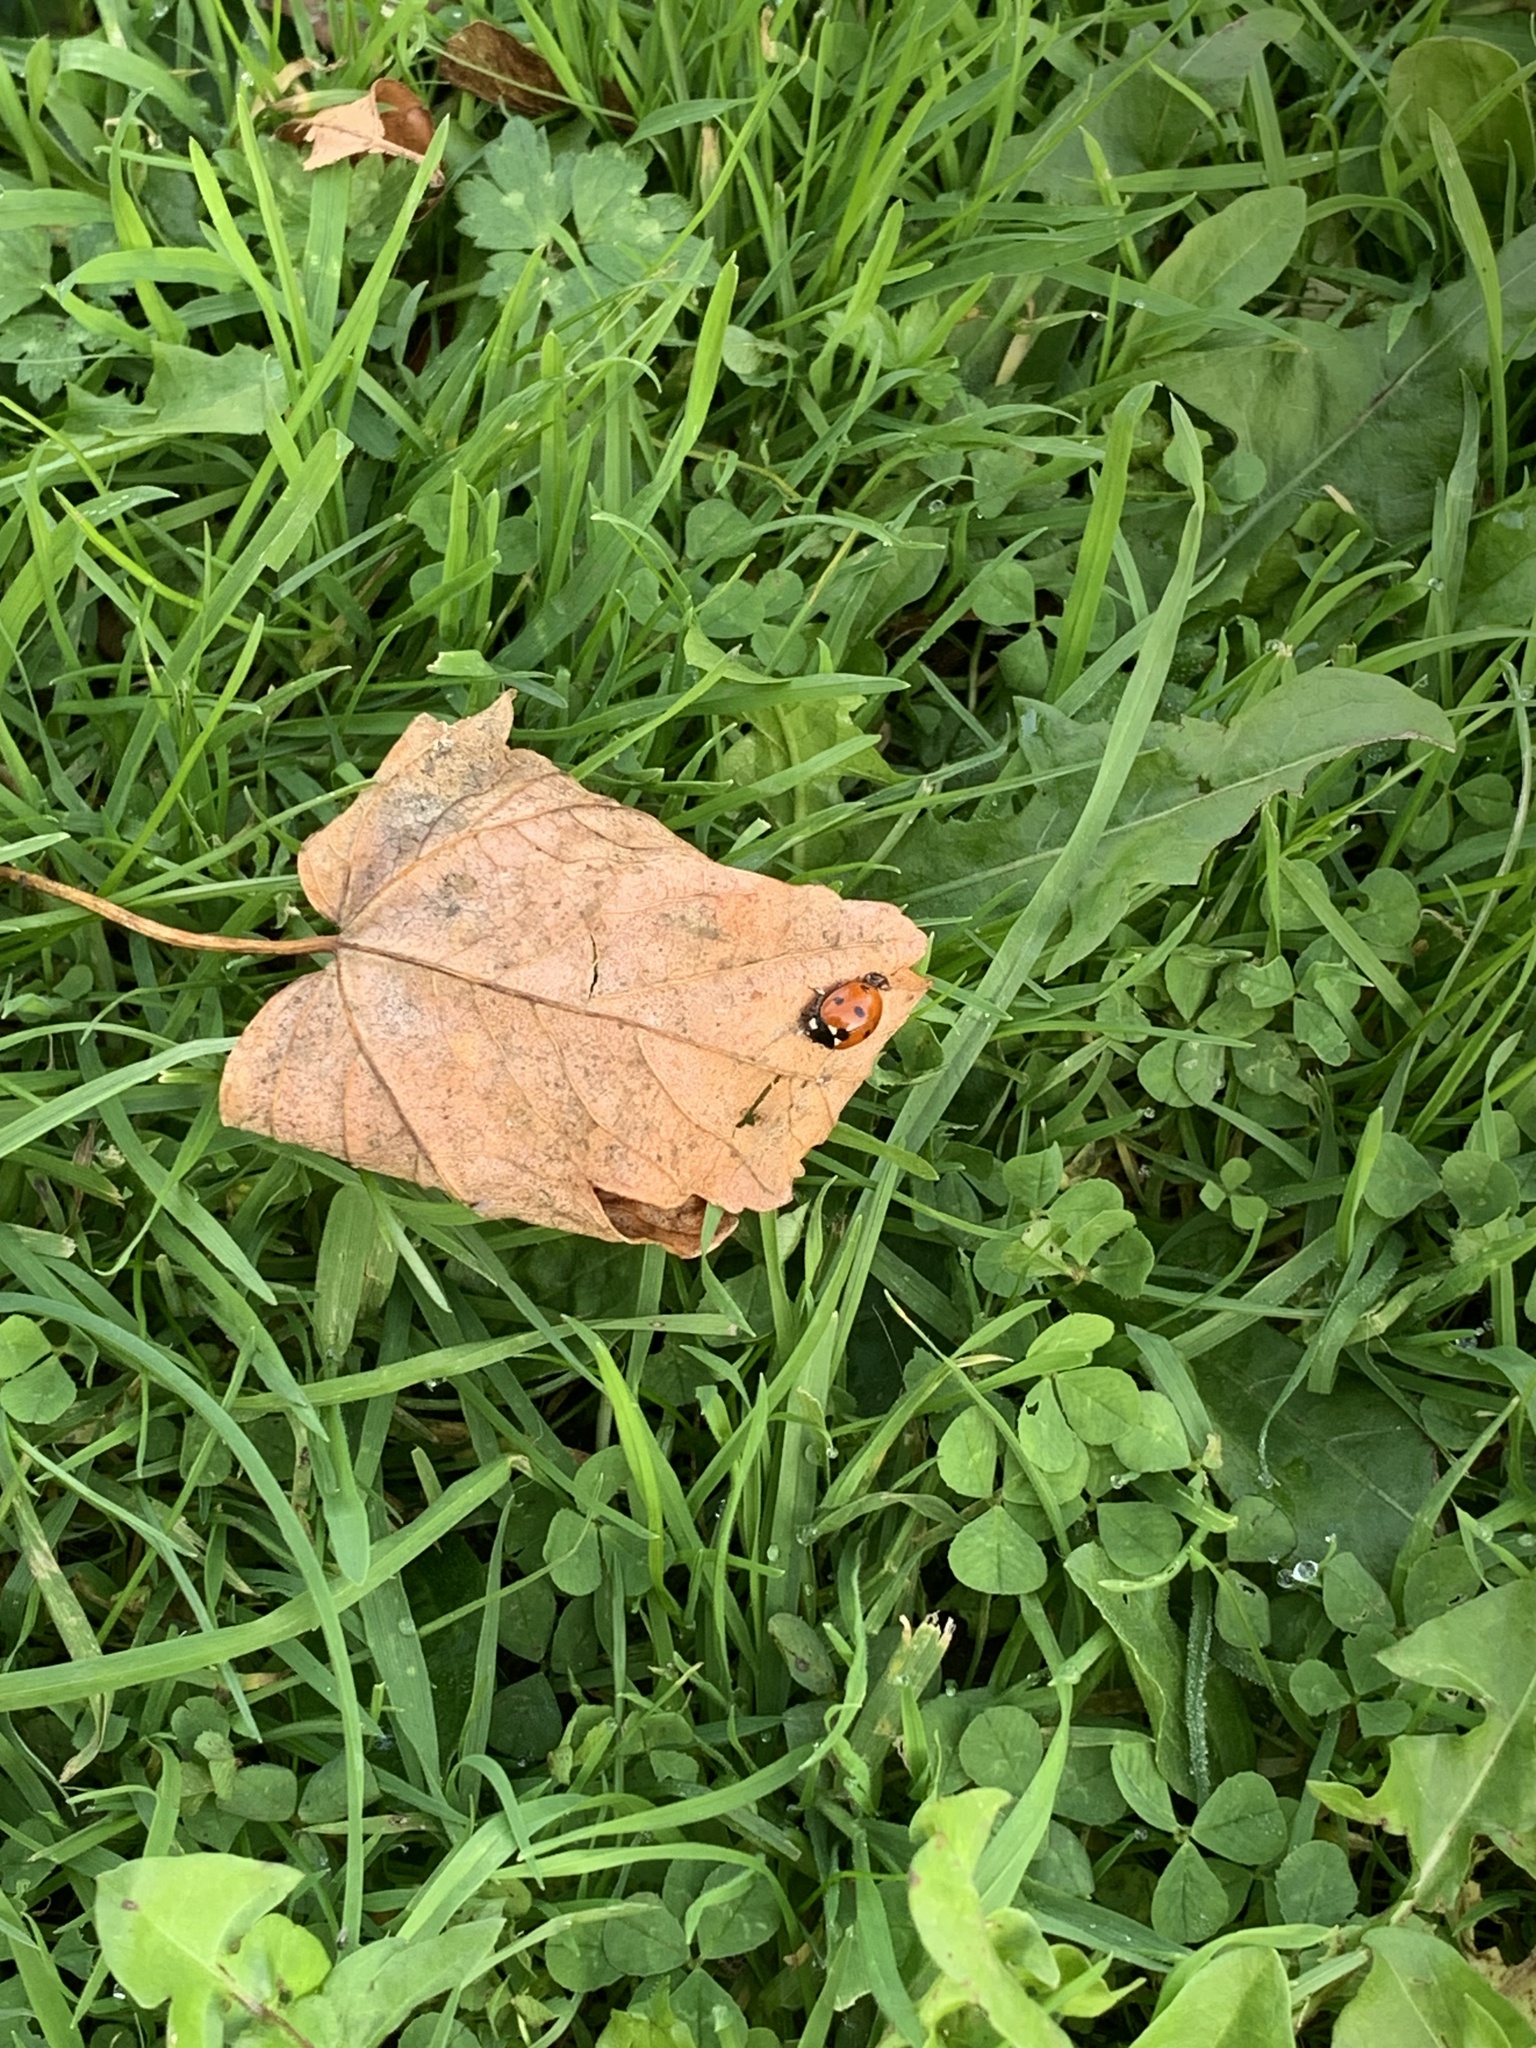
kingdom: Animalia
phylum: Arthropoda
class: Insecta
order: Coleoptera
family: Coccinellidae
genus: Coccinella
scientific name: Coccinella septempunctata
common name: Sevenspotted lady beetle
